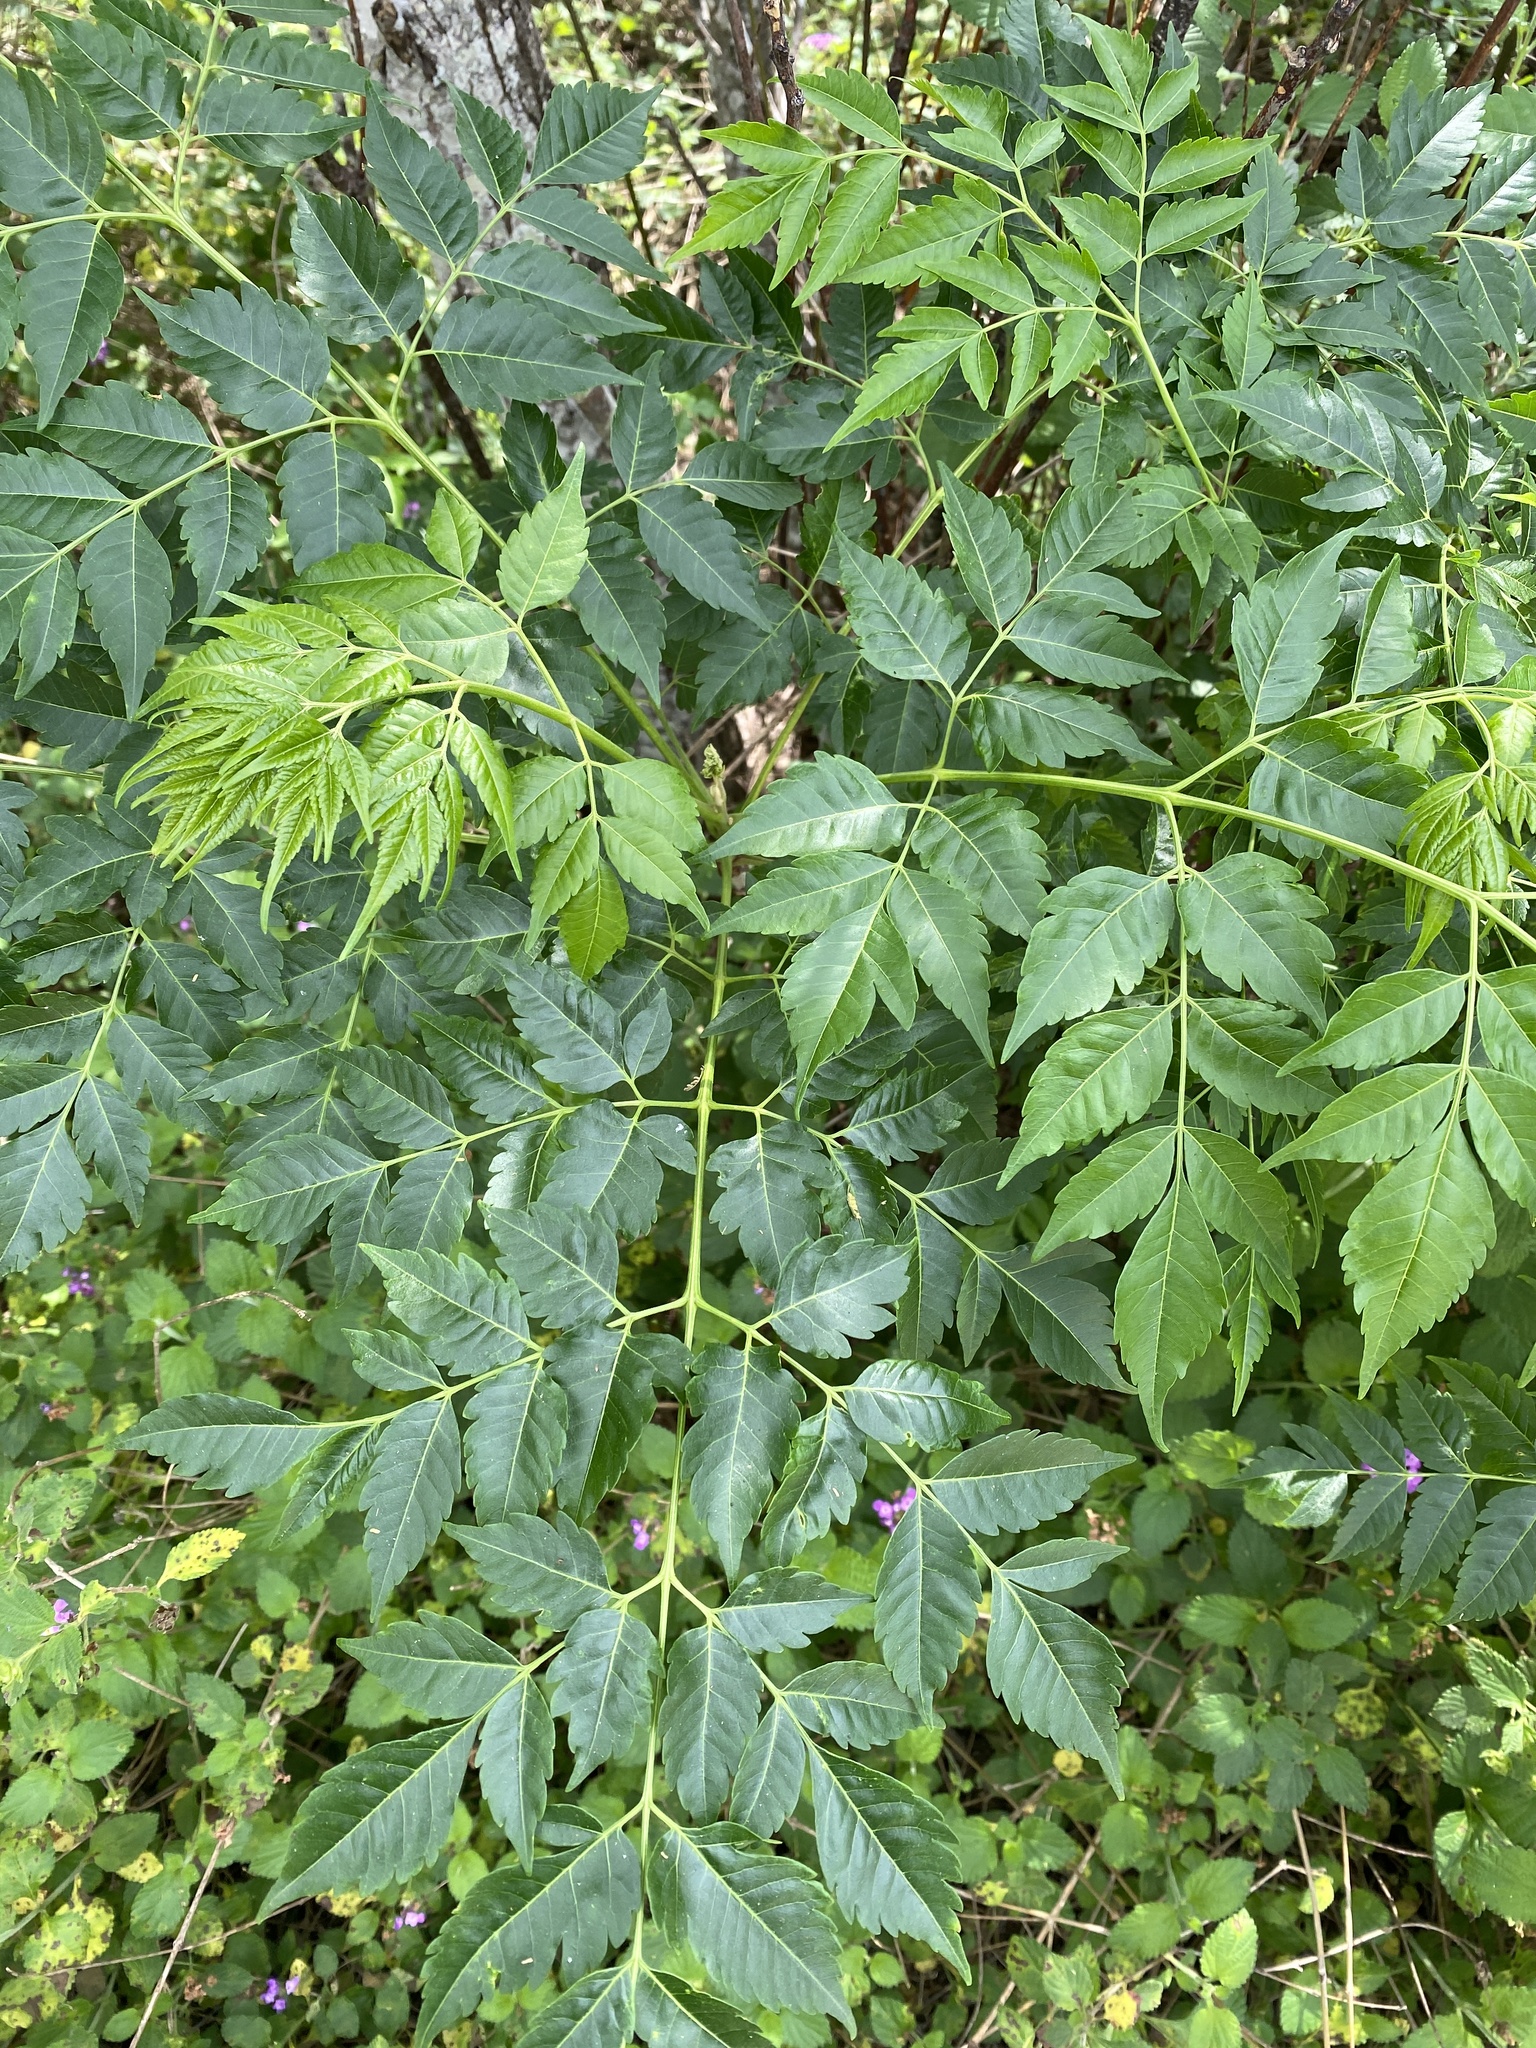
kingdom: Plantae
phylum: Tracheophyta
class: Magnoliopsida
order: Sapindales
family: Meliaceae
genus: Melia
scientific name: Melia azedarach
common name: Chinaberrytree
